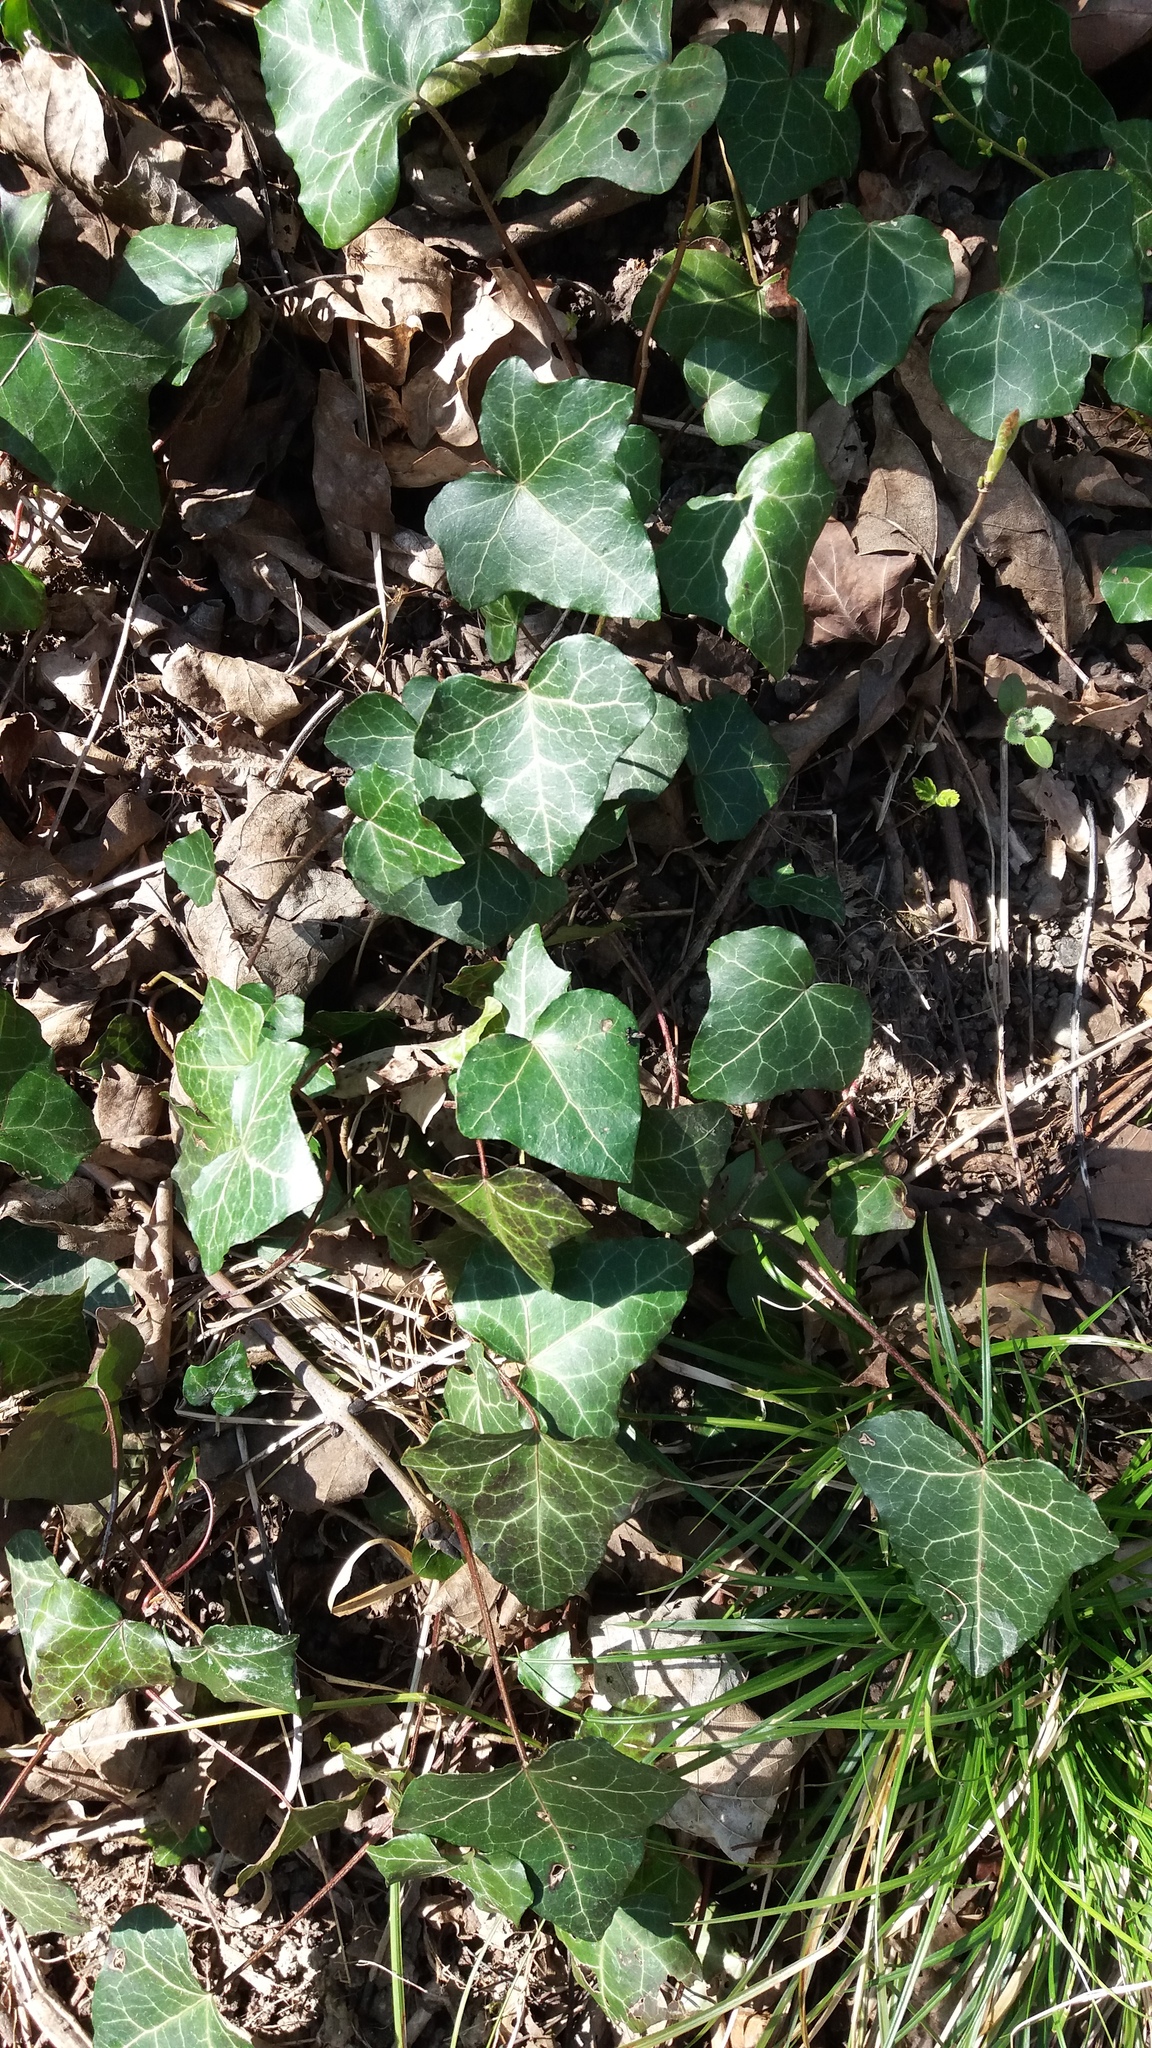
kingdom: Plantae
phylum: Tracheophyta
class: Magnoliopsida
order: Apiales
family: Araliaceae
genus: Hedera
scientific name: Hedera helix
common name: Ivy
